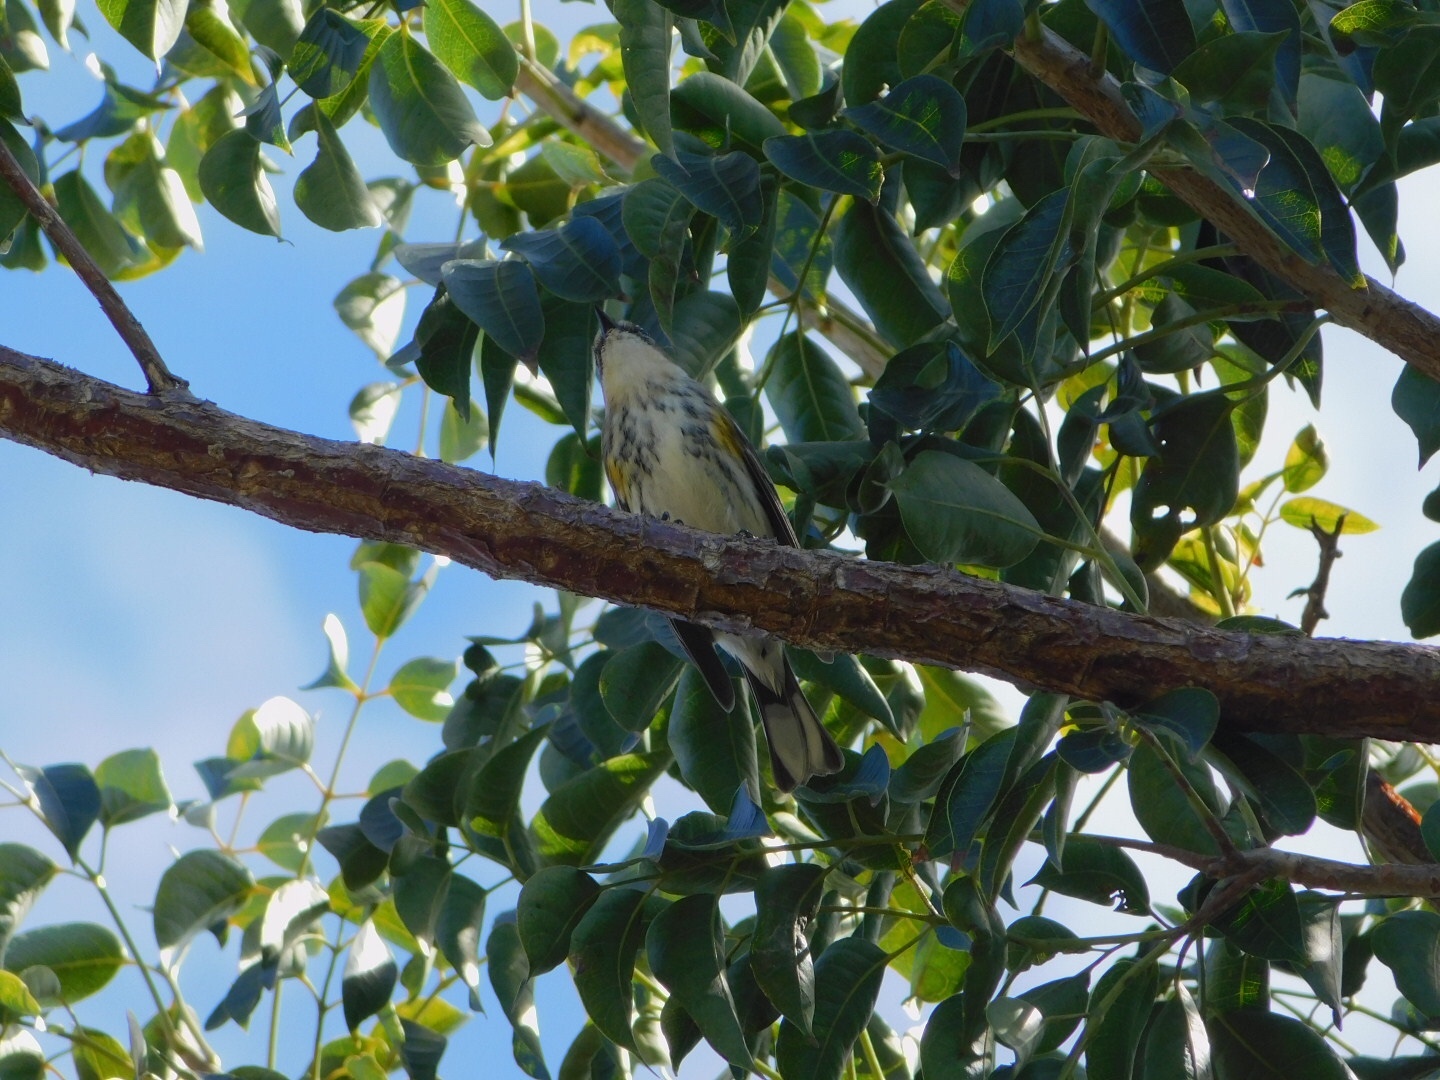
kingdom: Animalia
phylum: Chordata
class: Aves
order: Passeriformes
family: Parulidae
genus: Setophaga
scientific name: Setophaga coronata
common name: Myrtle warbler
